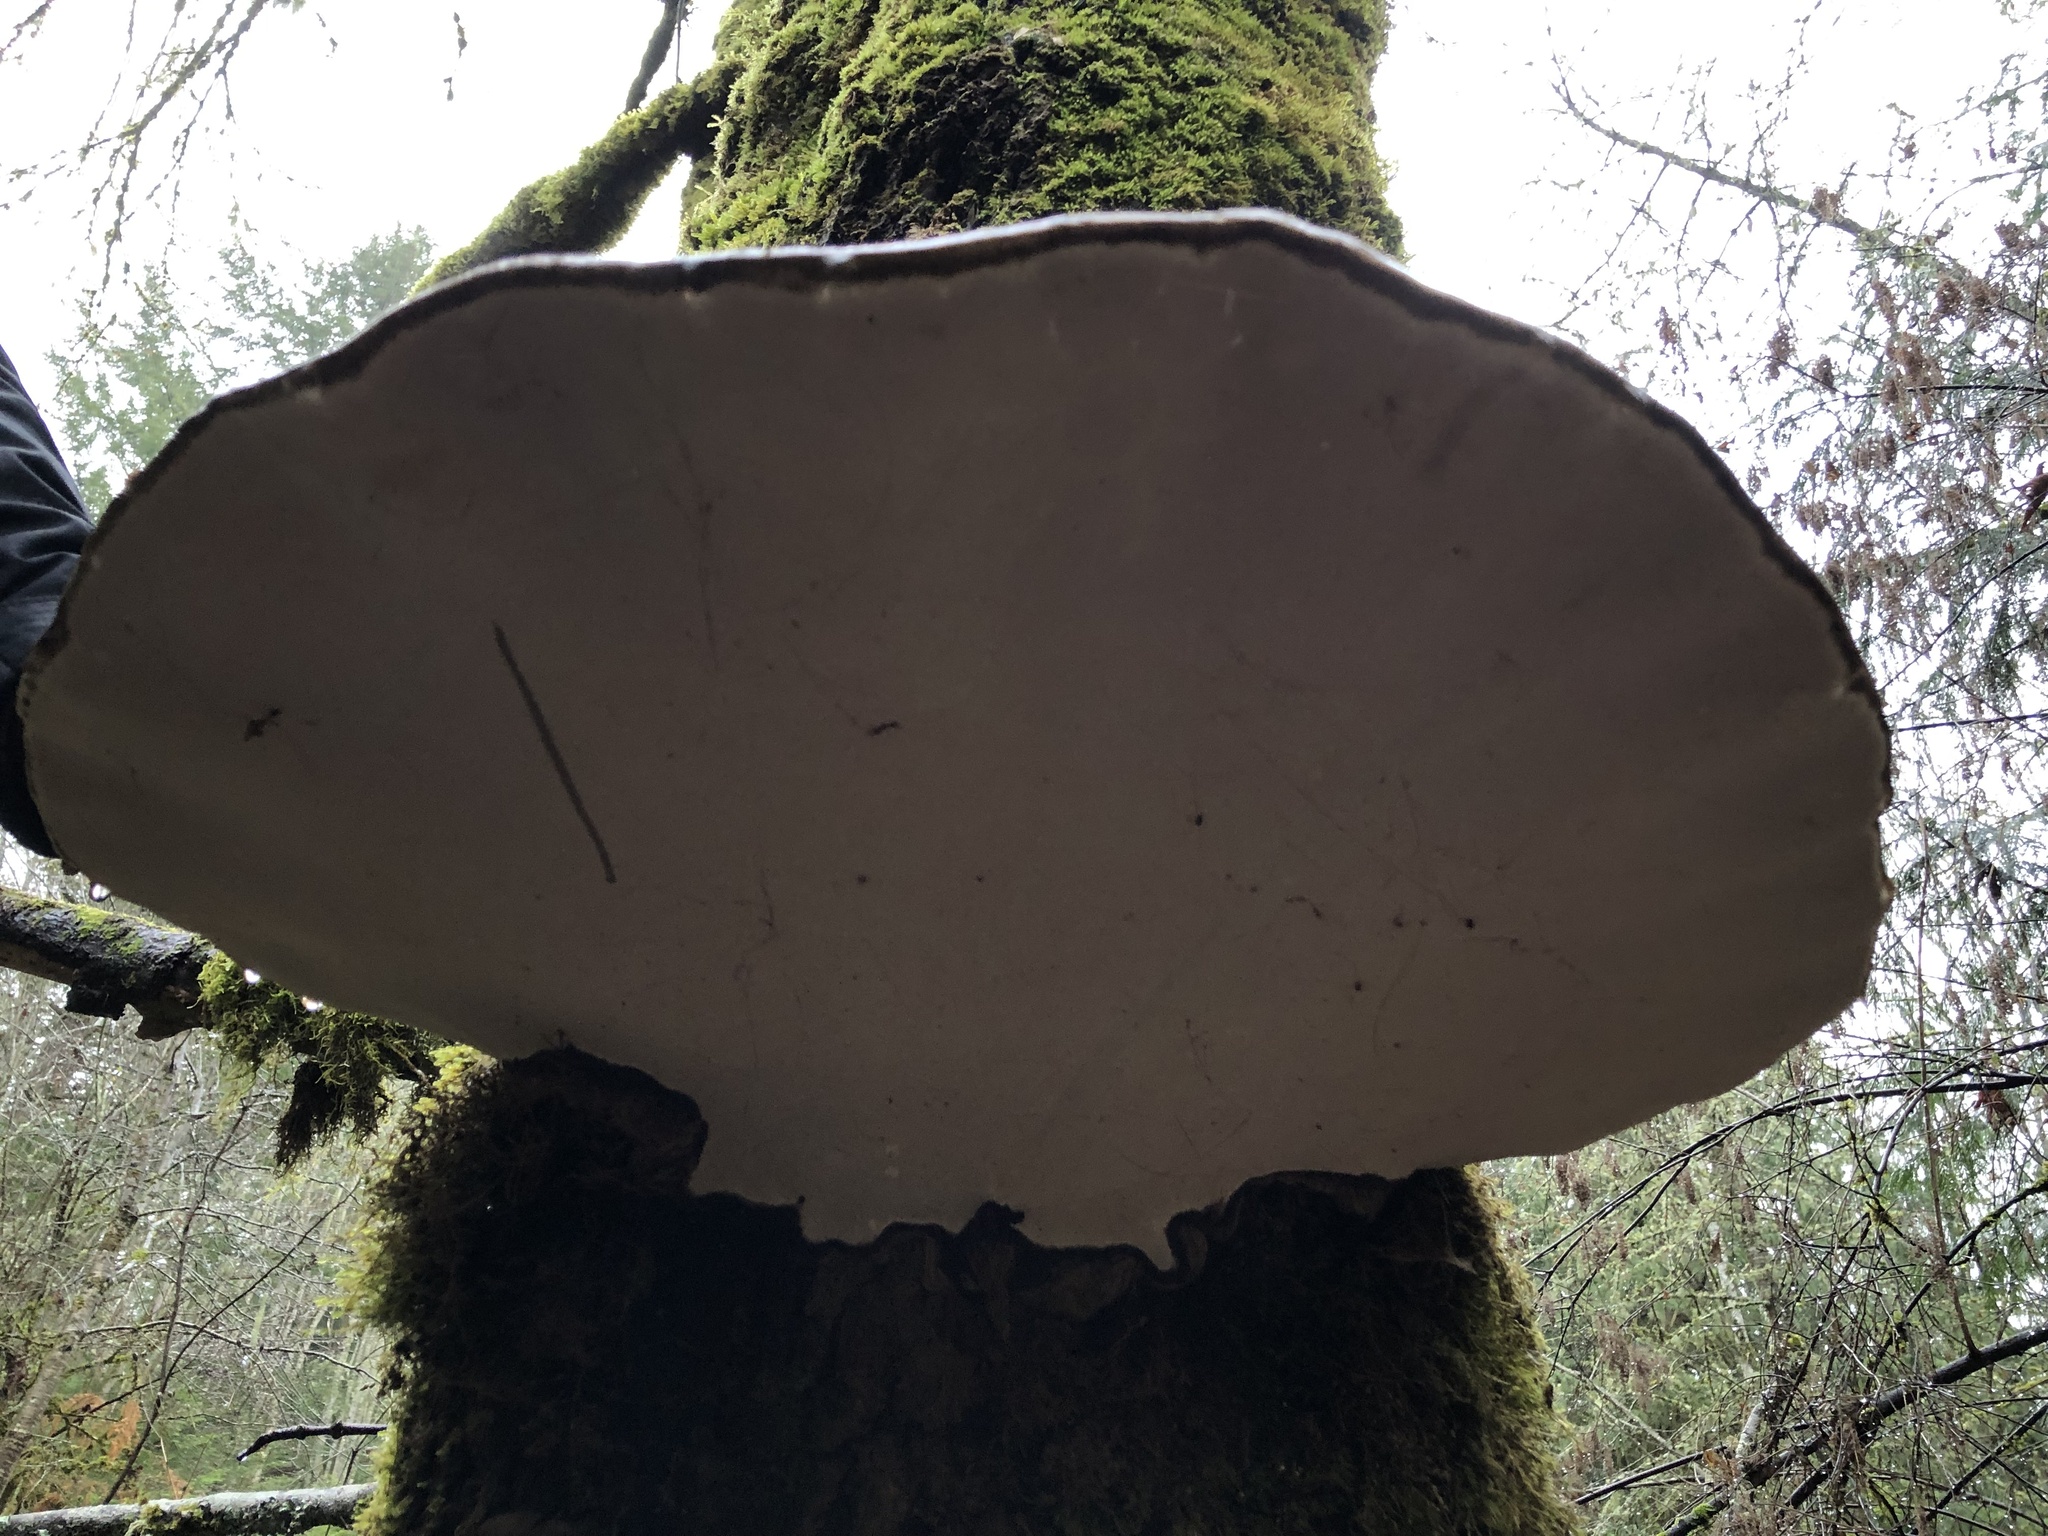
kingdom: Fungi
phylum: Basidiomycota
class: Agaricomycetes
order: Polyporales
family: Polyporaceae
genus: Ganoderma
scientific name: Ganoderma applanatum
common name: Artist's bracket
